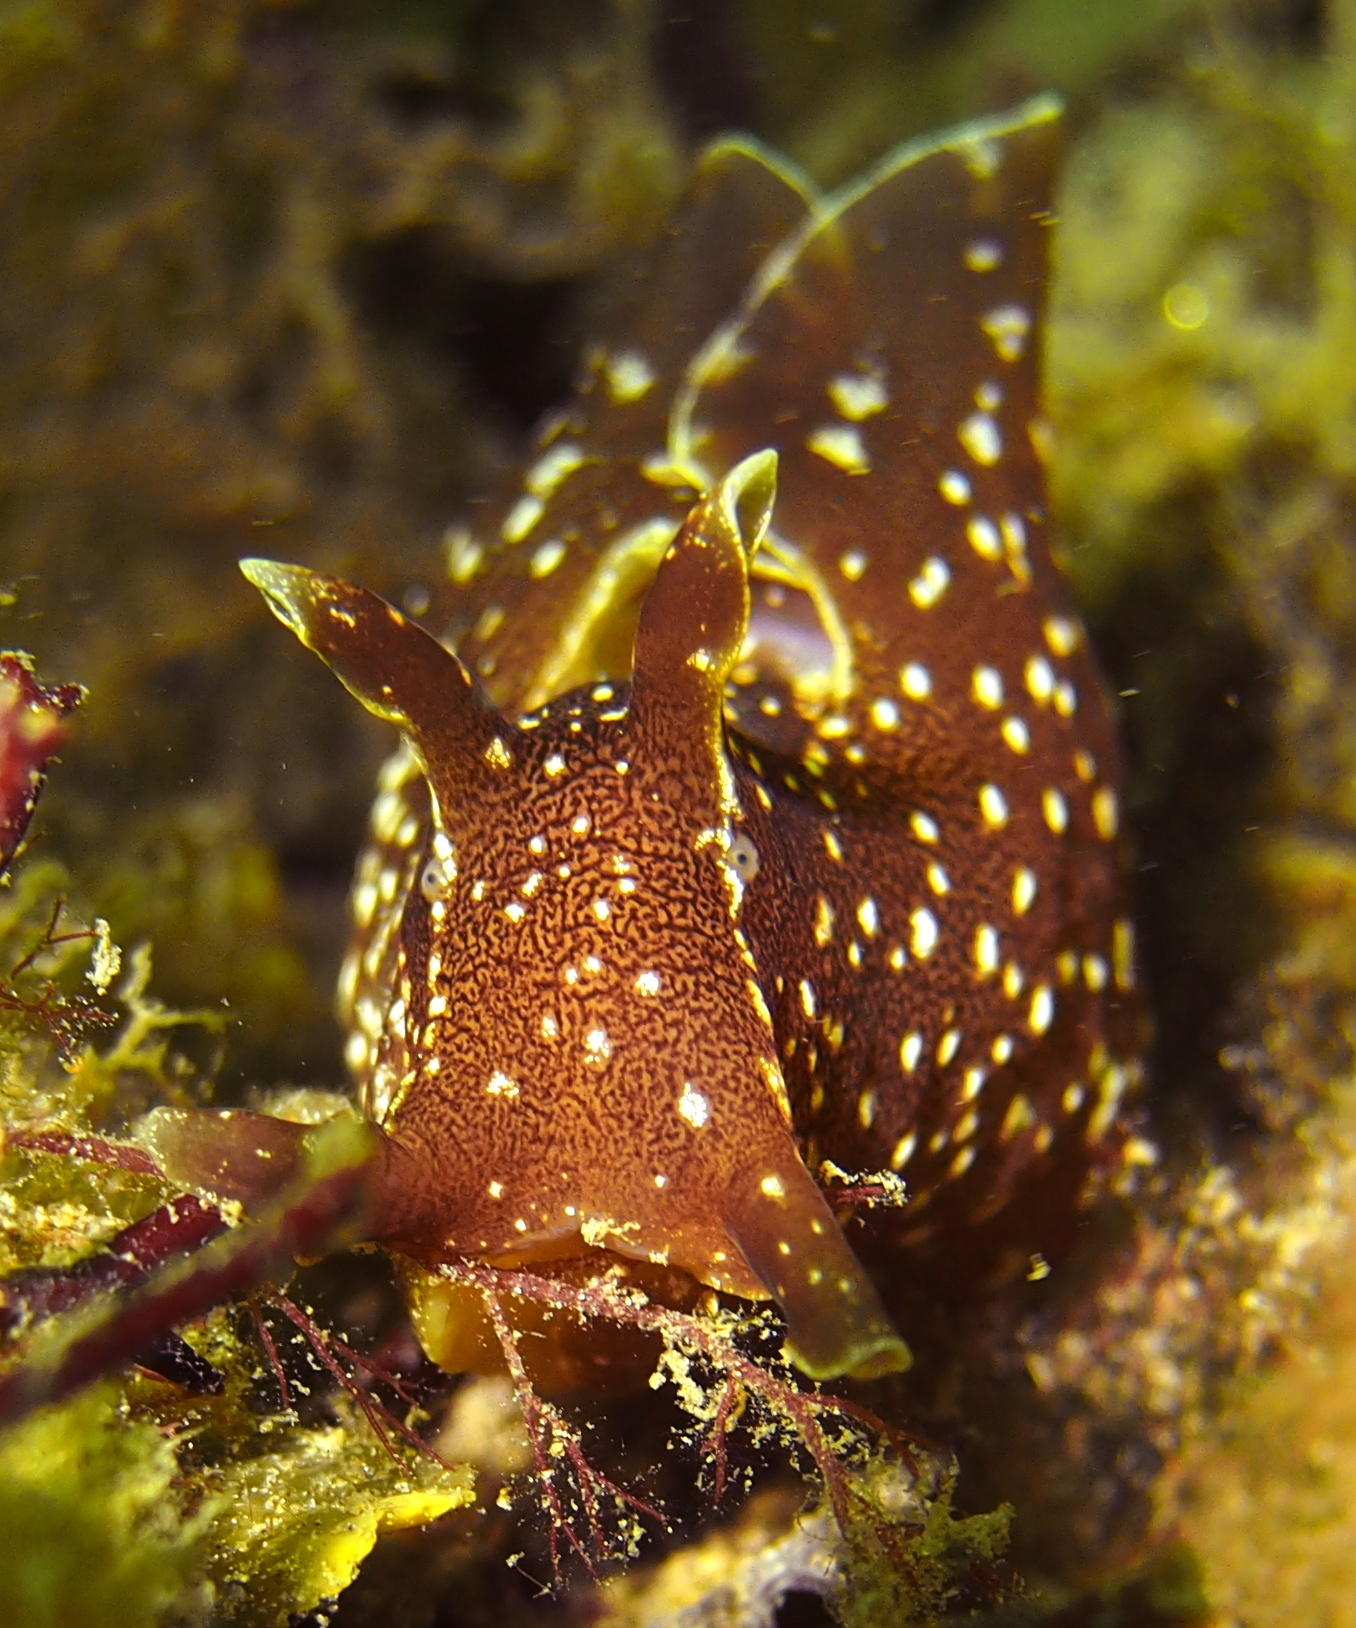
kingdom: Animalia
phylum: Mollusca
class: Gastropoda
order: Aplysiida
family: Aplysiidae
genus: Aplysia
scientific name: Aplysia punctata
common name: Common sea hare
